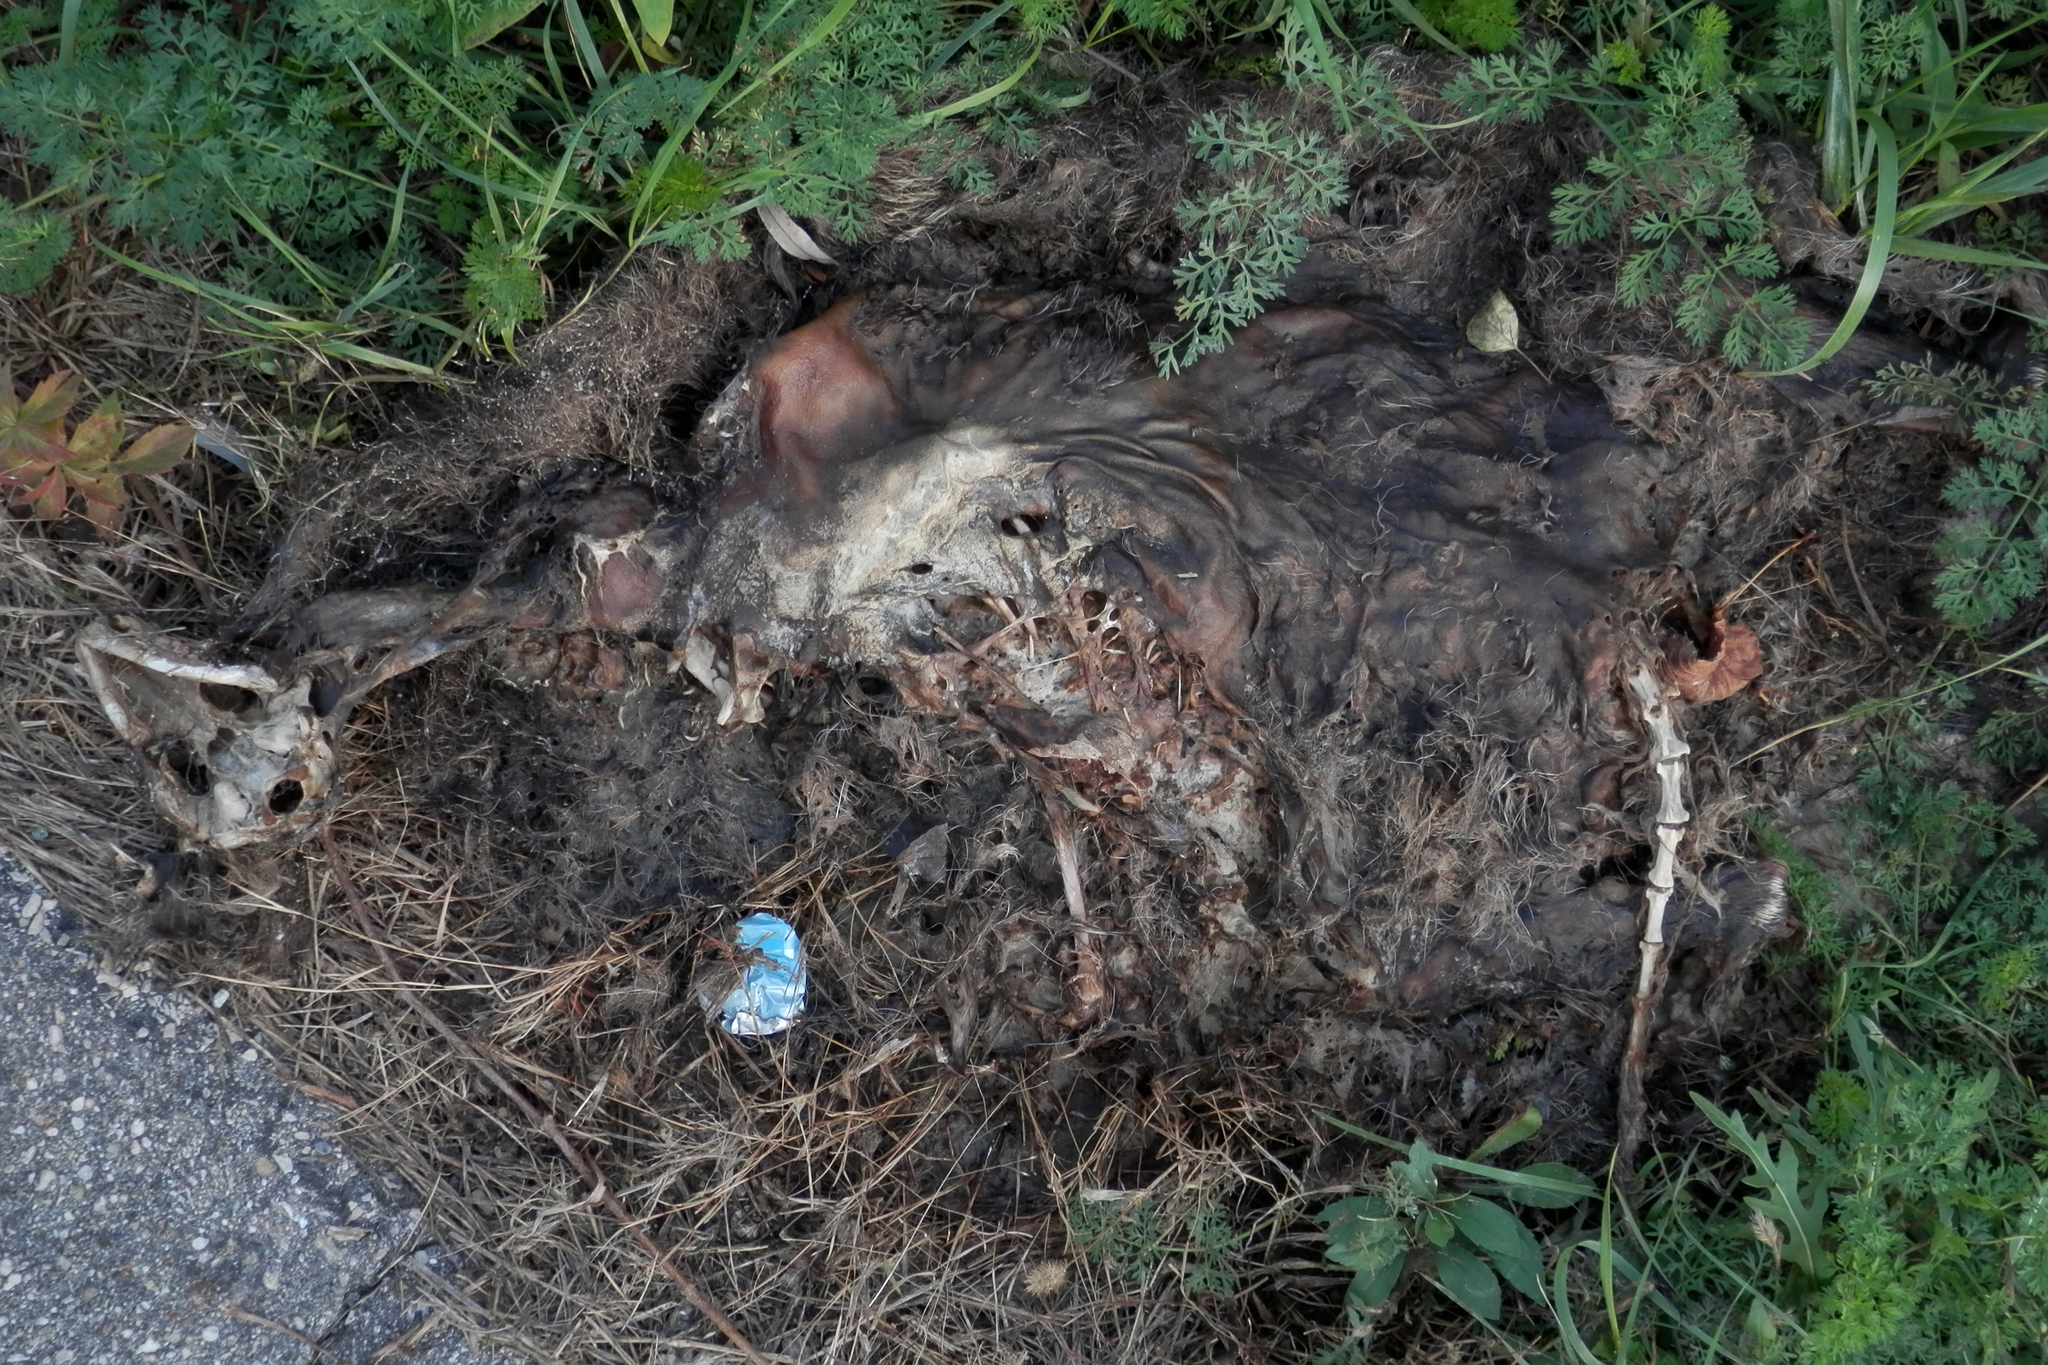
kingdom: Animalia
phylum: Chordata
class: Mammalia
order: Carnivora
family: Procyonidae
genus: Procyon
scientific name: Procyon lotor
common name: Raccoon
